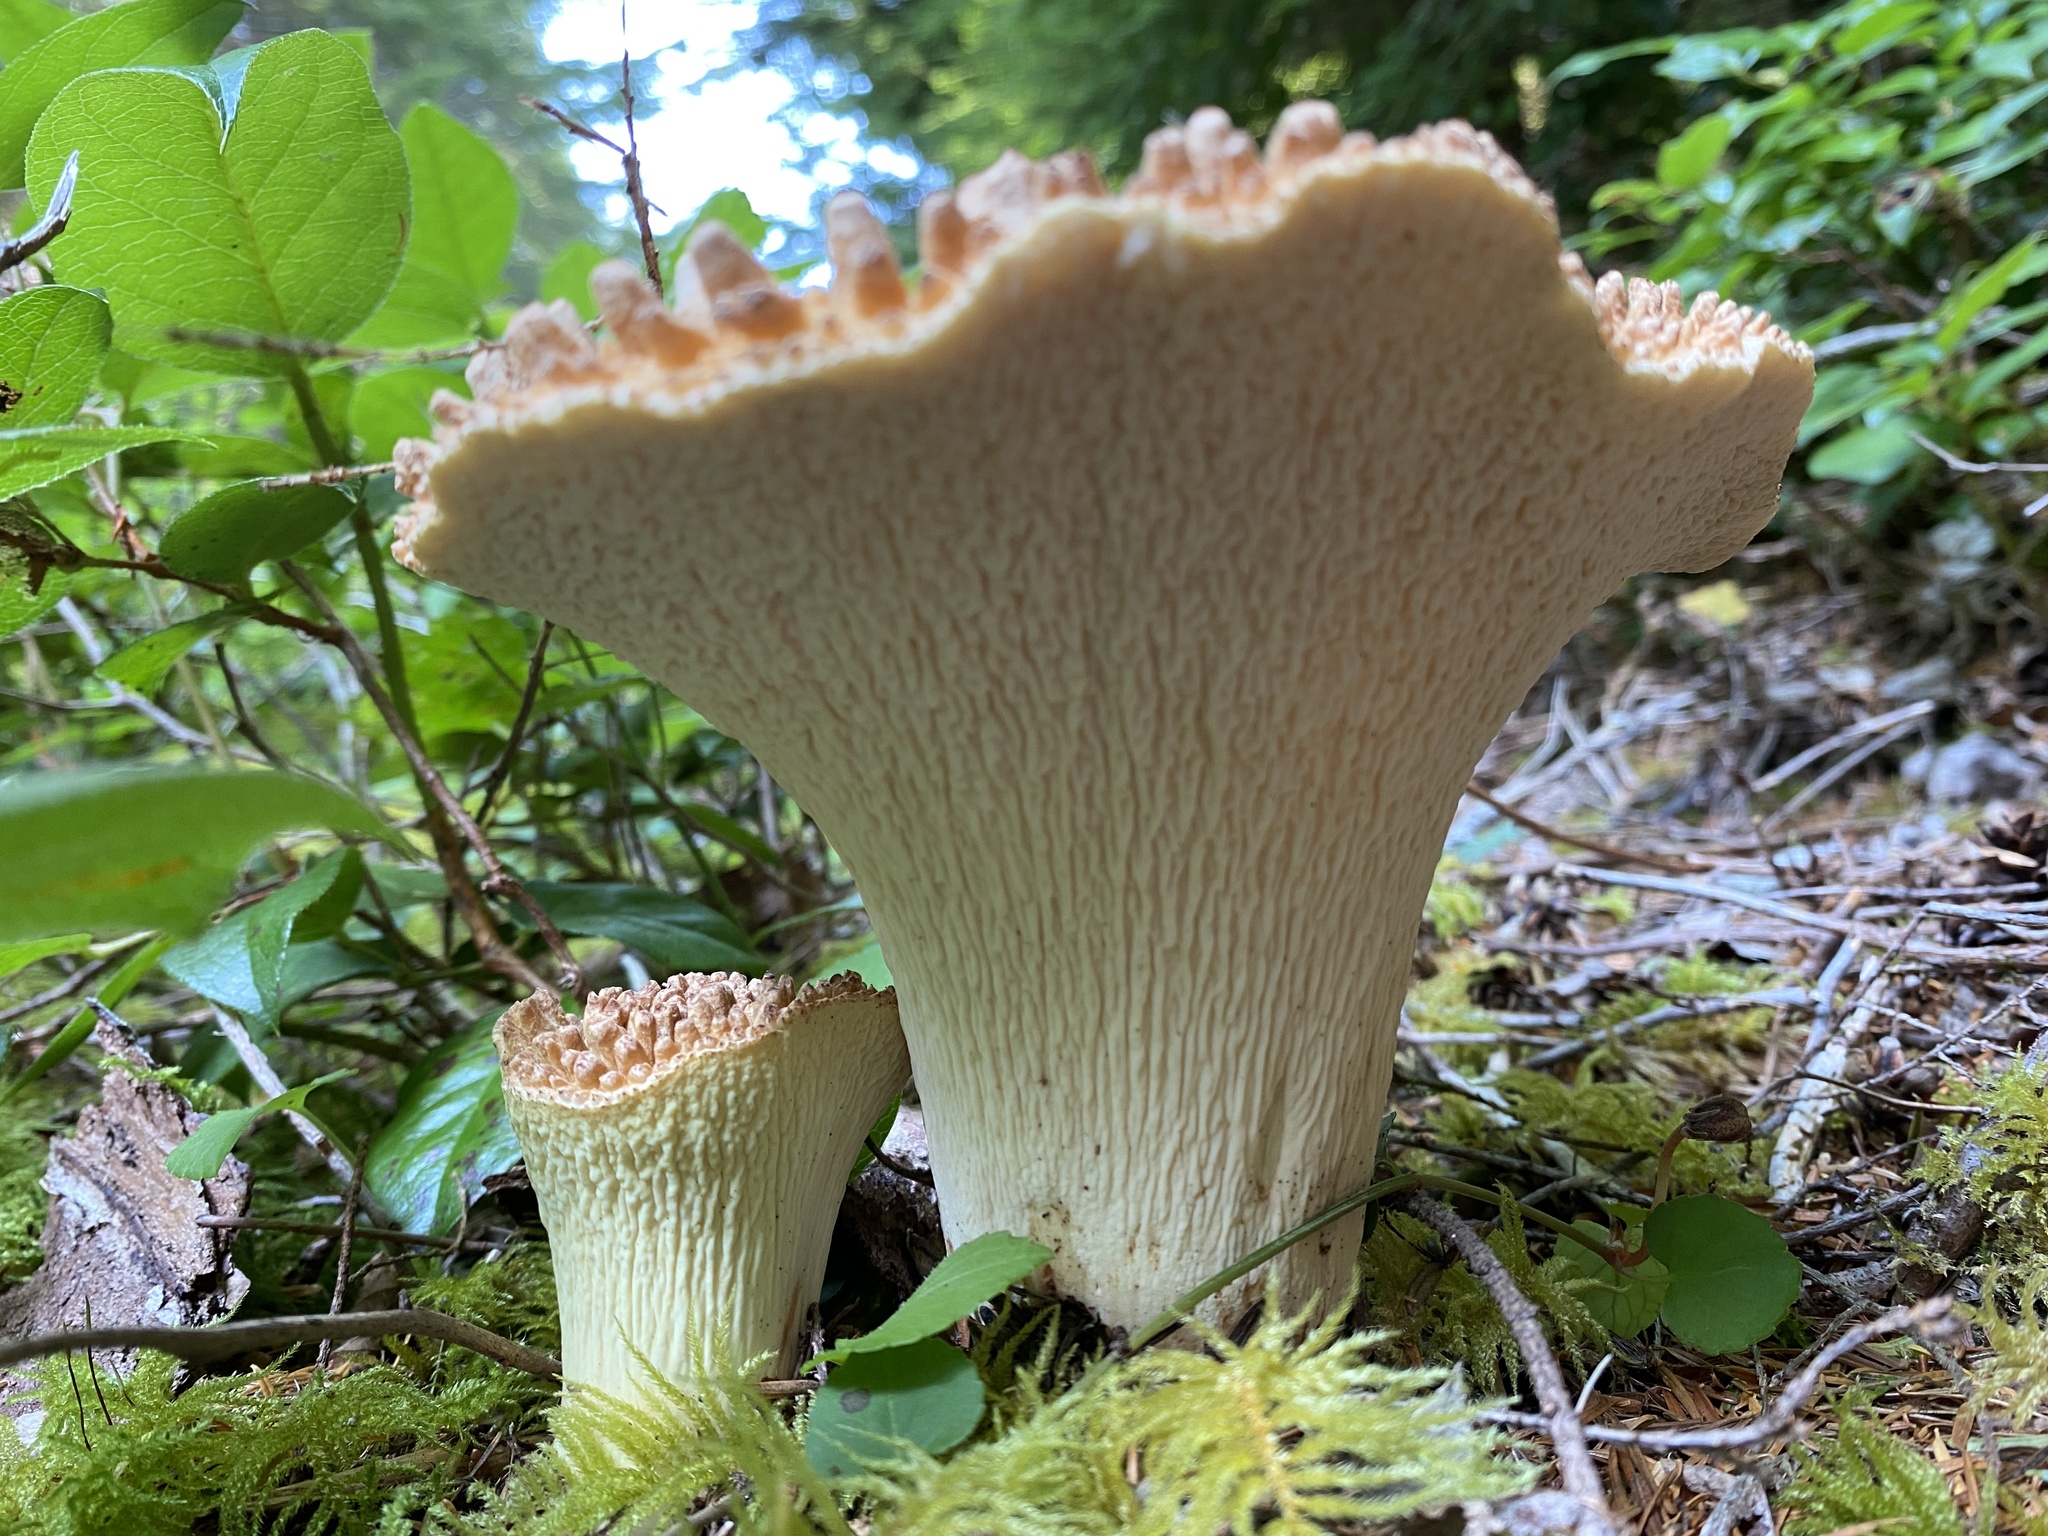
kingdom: Fungi
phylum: Basidiomycota
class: Agaricomycetes
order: Gomphales
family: Gomphaceae
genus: Turbinellus
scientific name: Turbinellus kauffmanii
